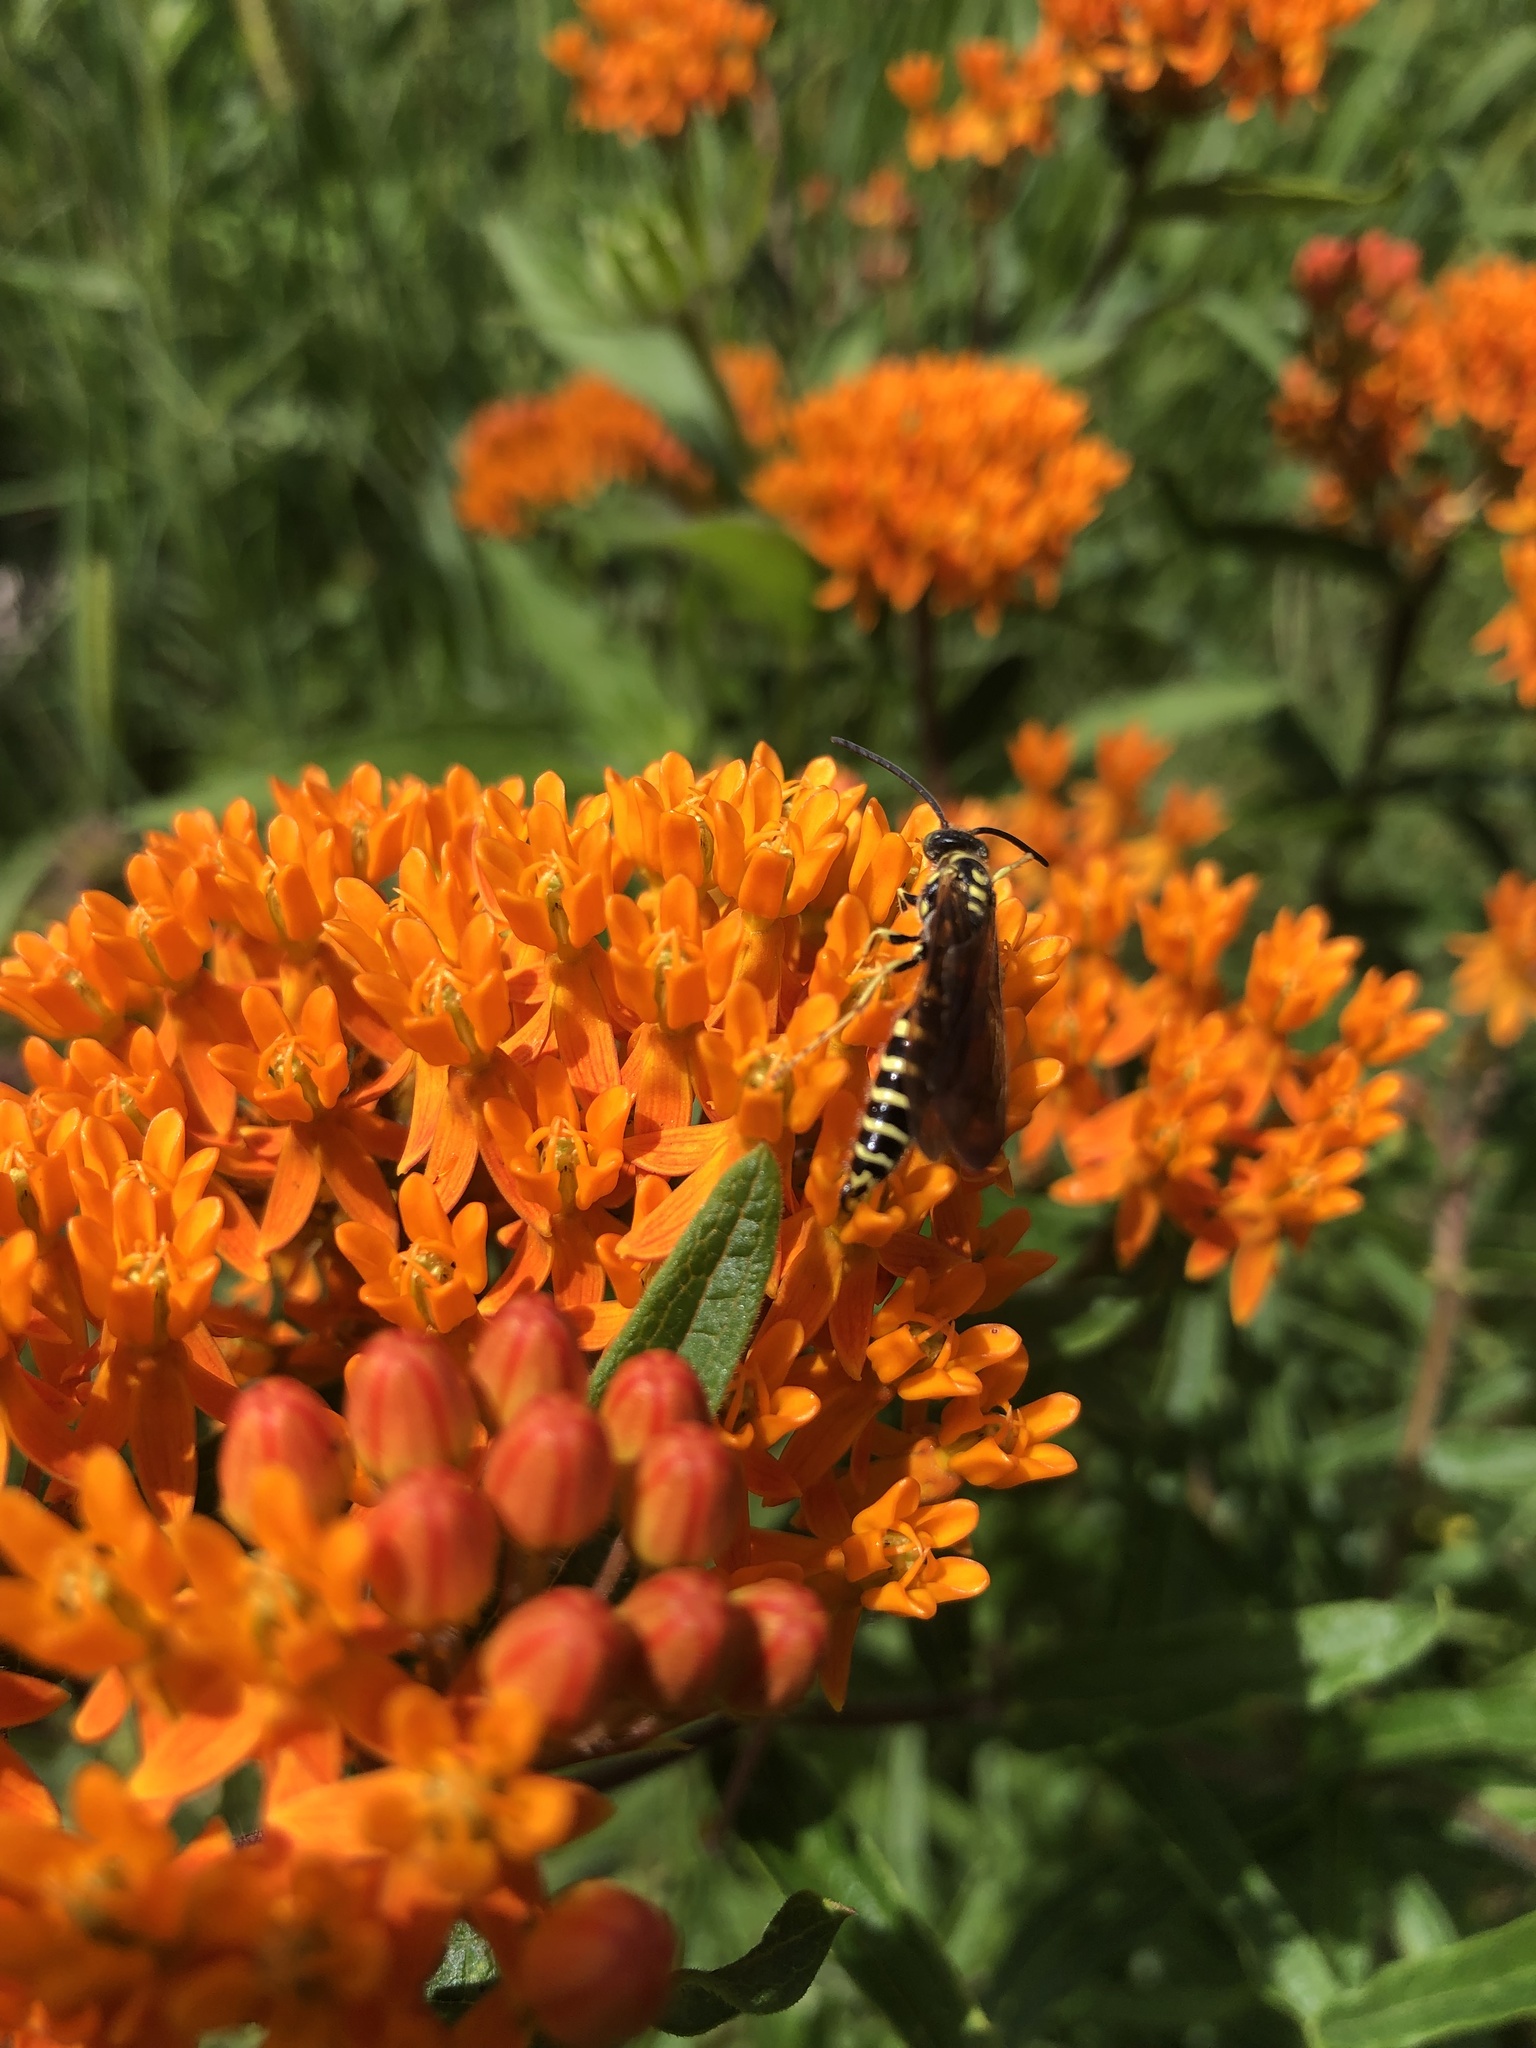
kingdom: Plantae
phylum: Tracheophyta
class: Magnoliopsida
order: Gentianales
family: Apocynaceae
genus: Asclepias
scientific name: Asclepias tuberosa
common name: Butterfly milkweed
